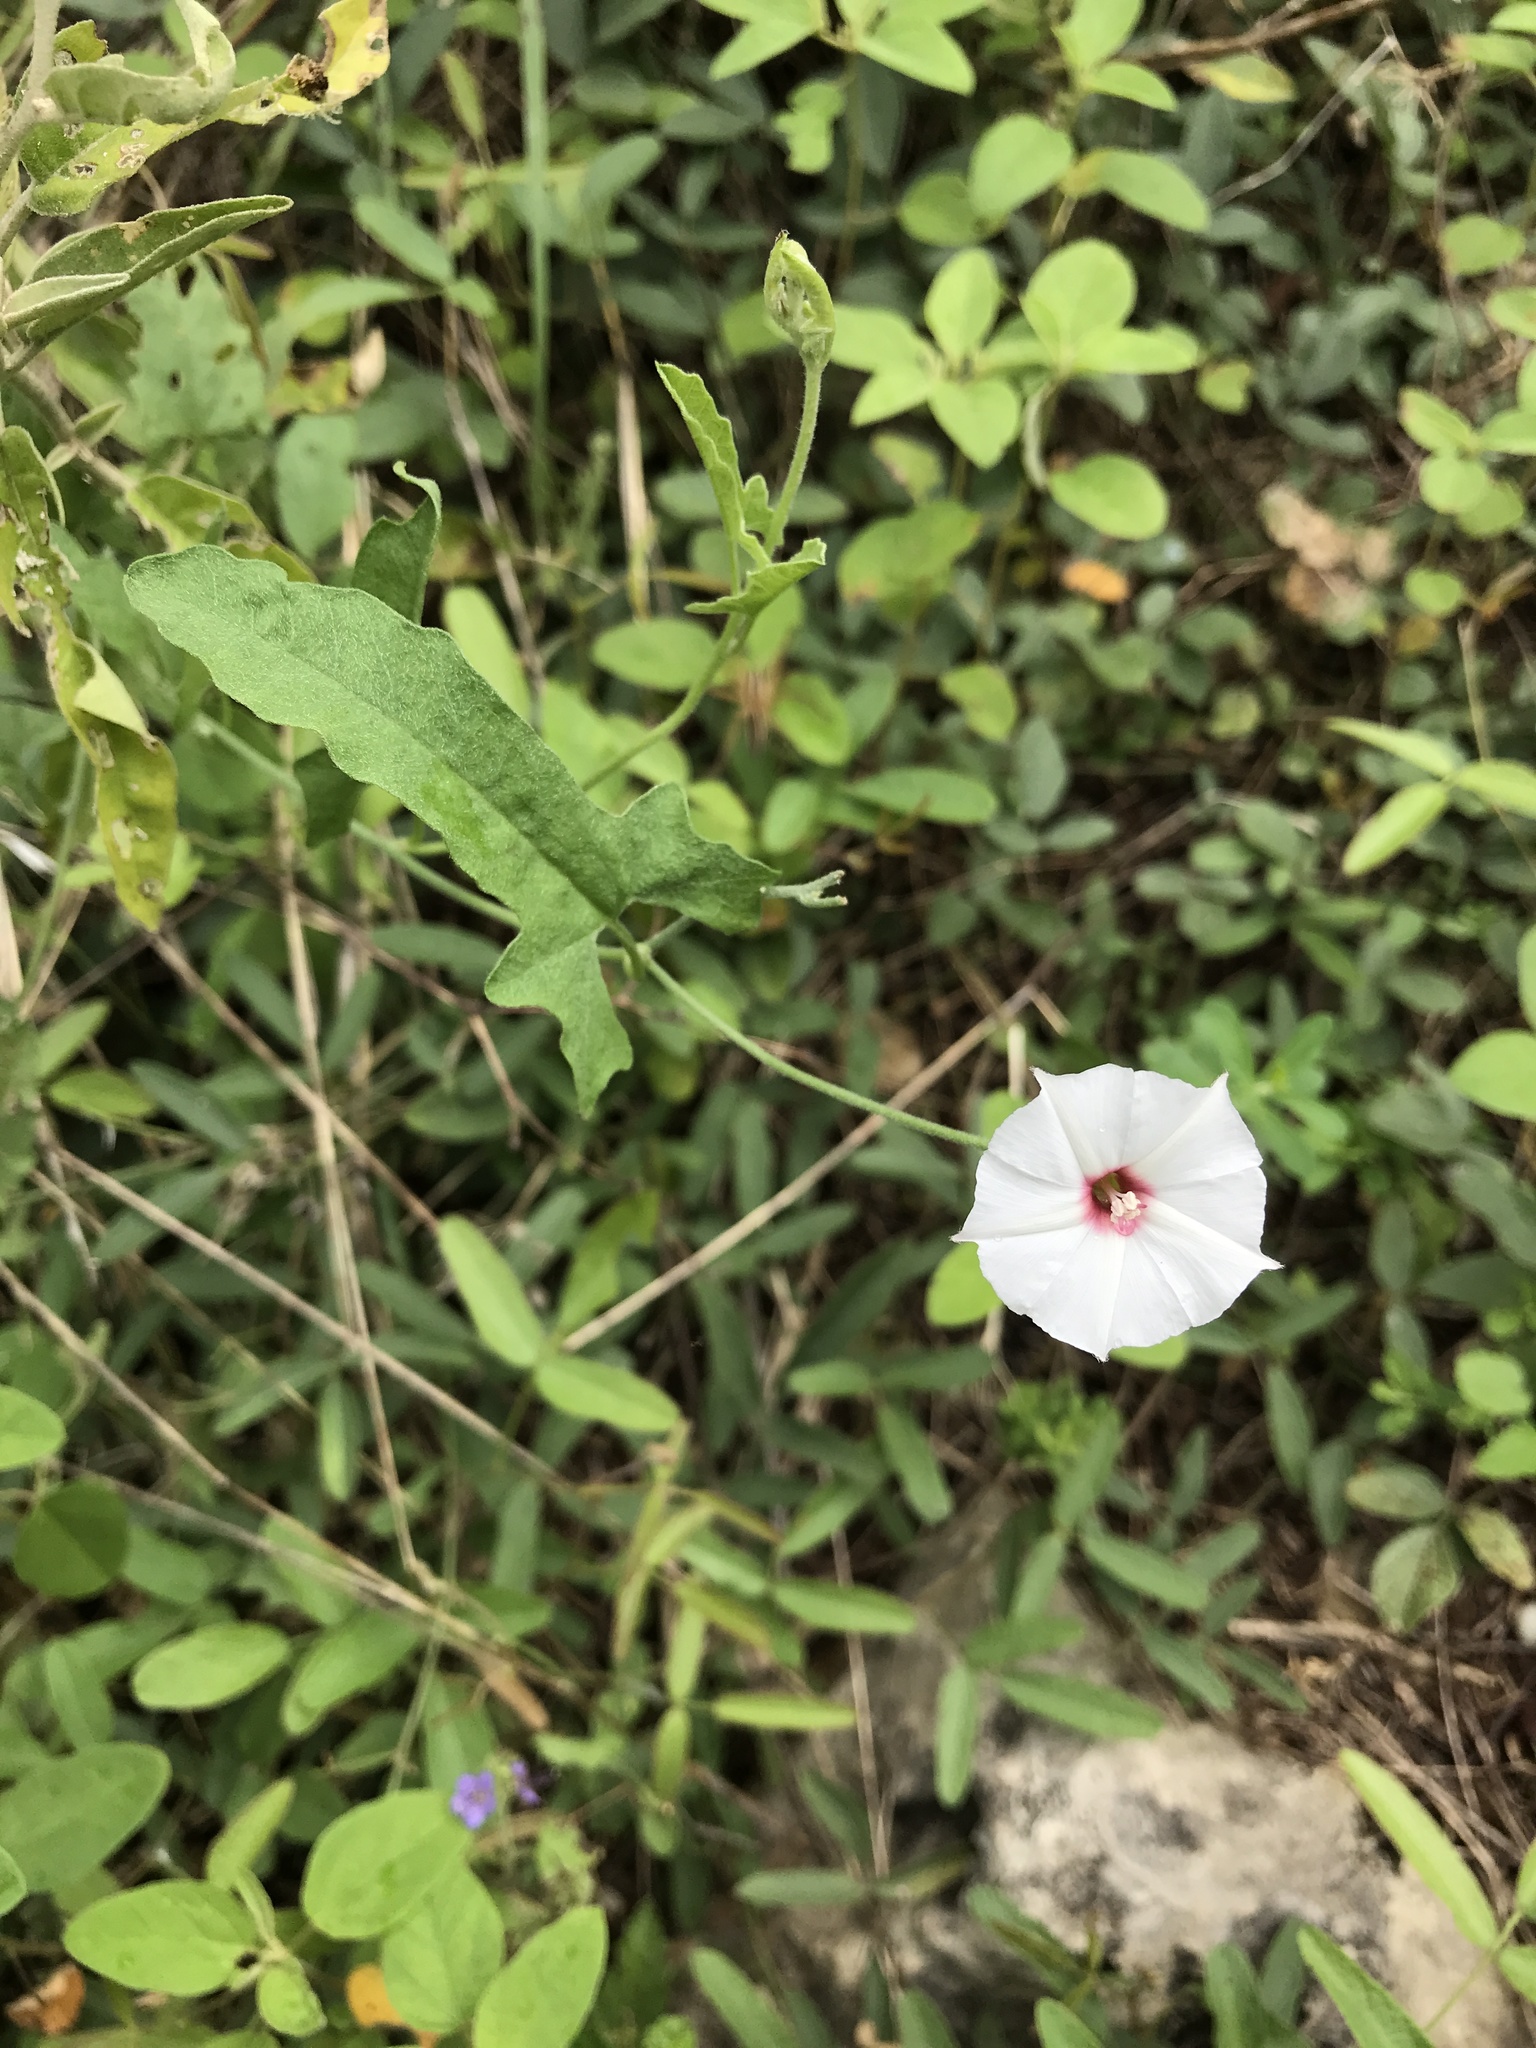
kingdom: Plantae
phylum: Tracheophyta
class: Magnoliopsida
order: Solanales
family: Convolvulaceae
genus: Convolvulus
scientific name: Convolvulus equitans
